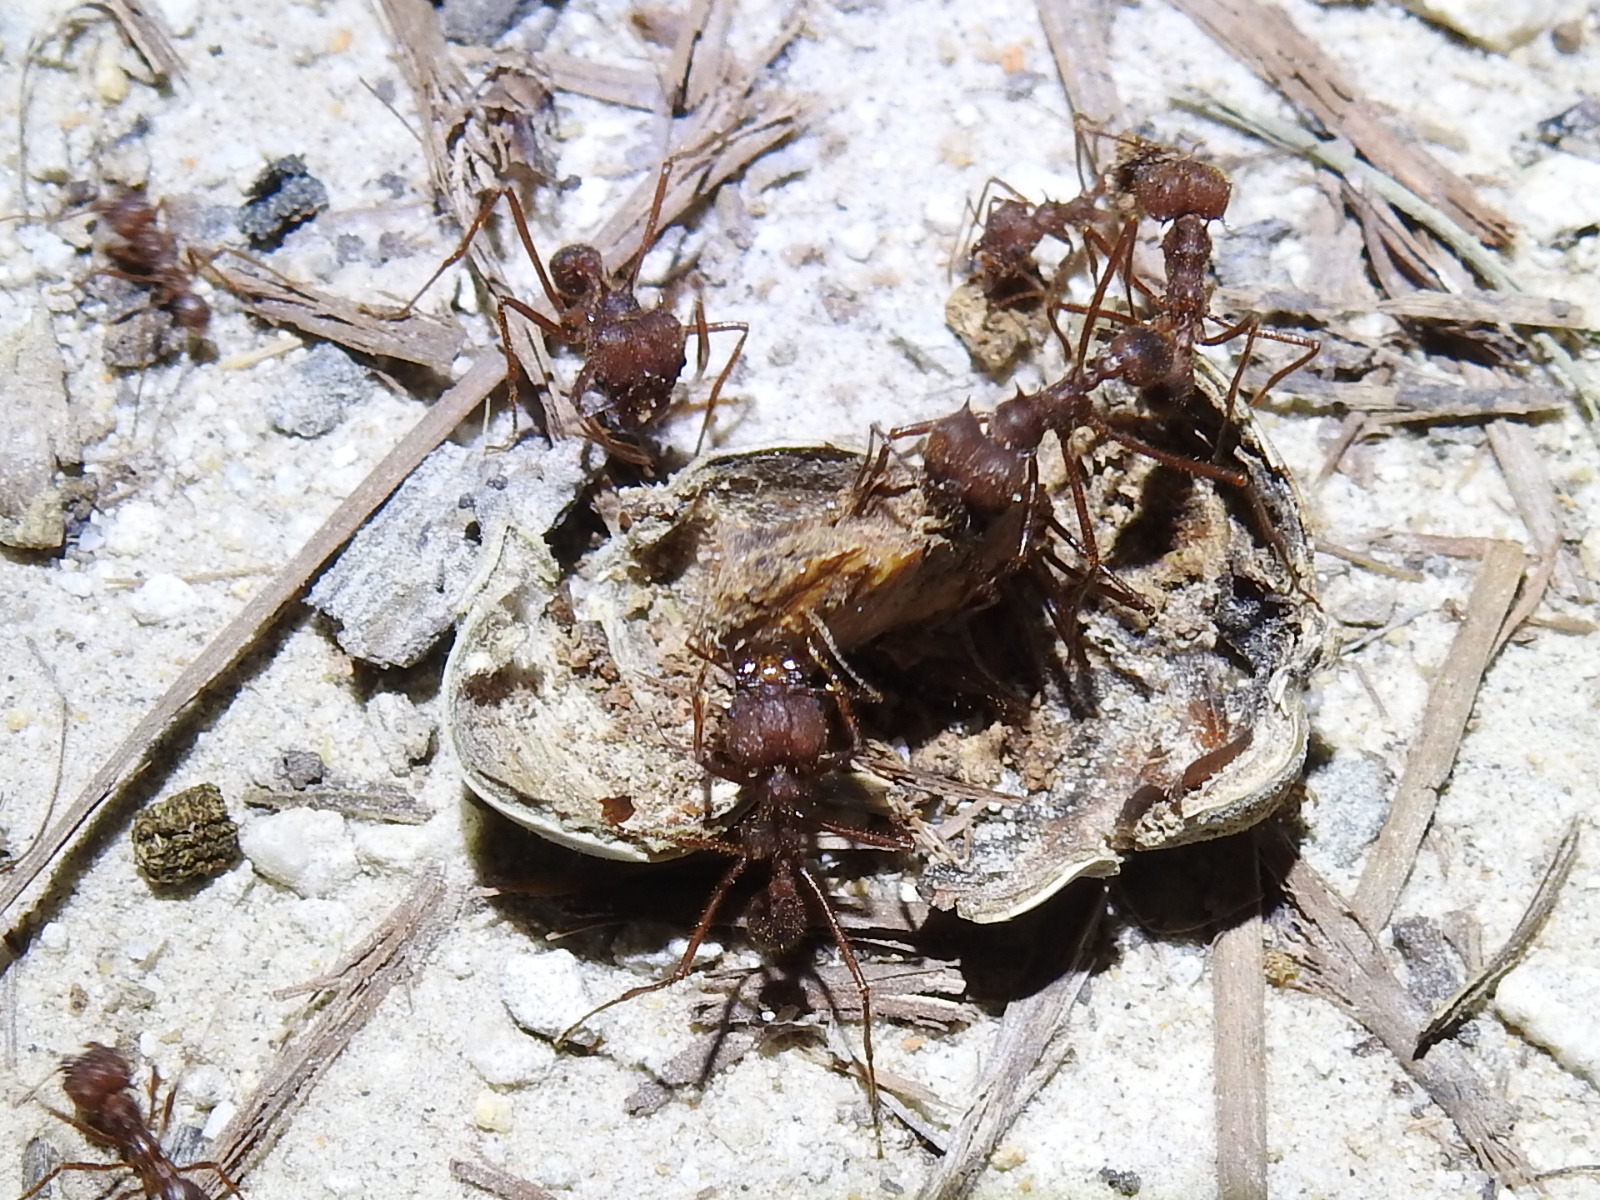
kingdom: Animalia
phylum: Arthropoda
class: Insecta
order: Hymenoptera
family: Formicidae
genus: Atta
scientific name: Atta texana
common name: Texas leafcutting ant
